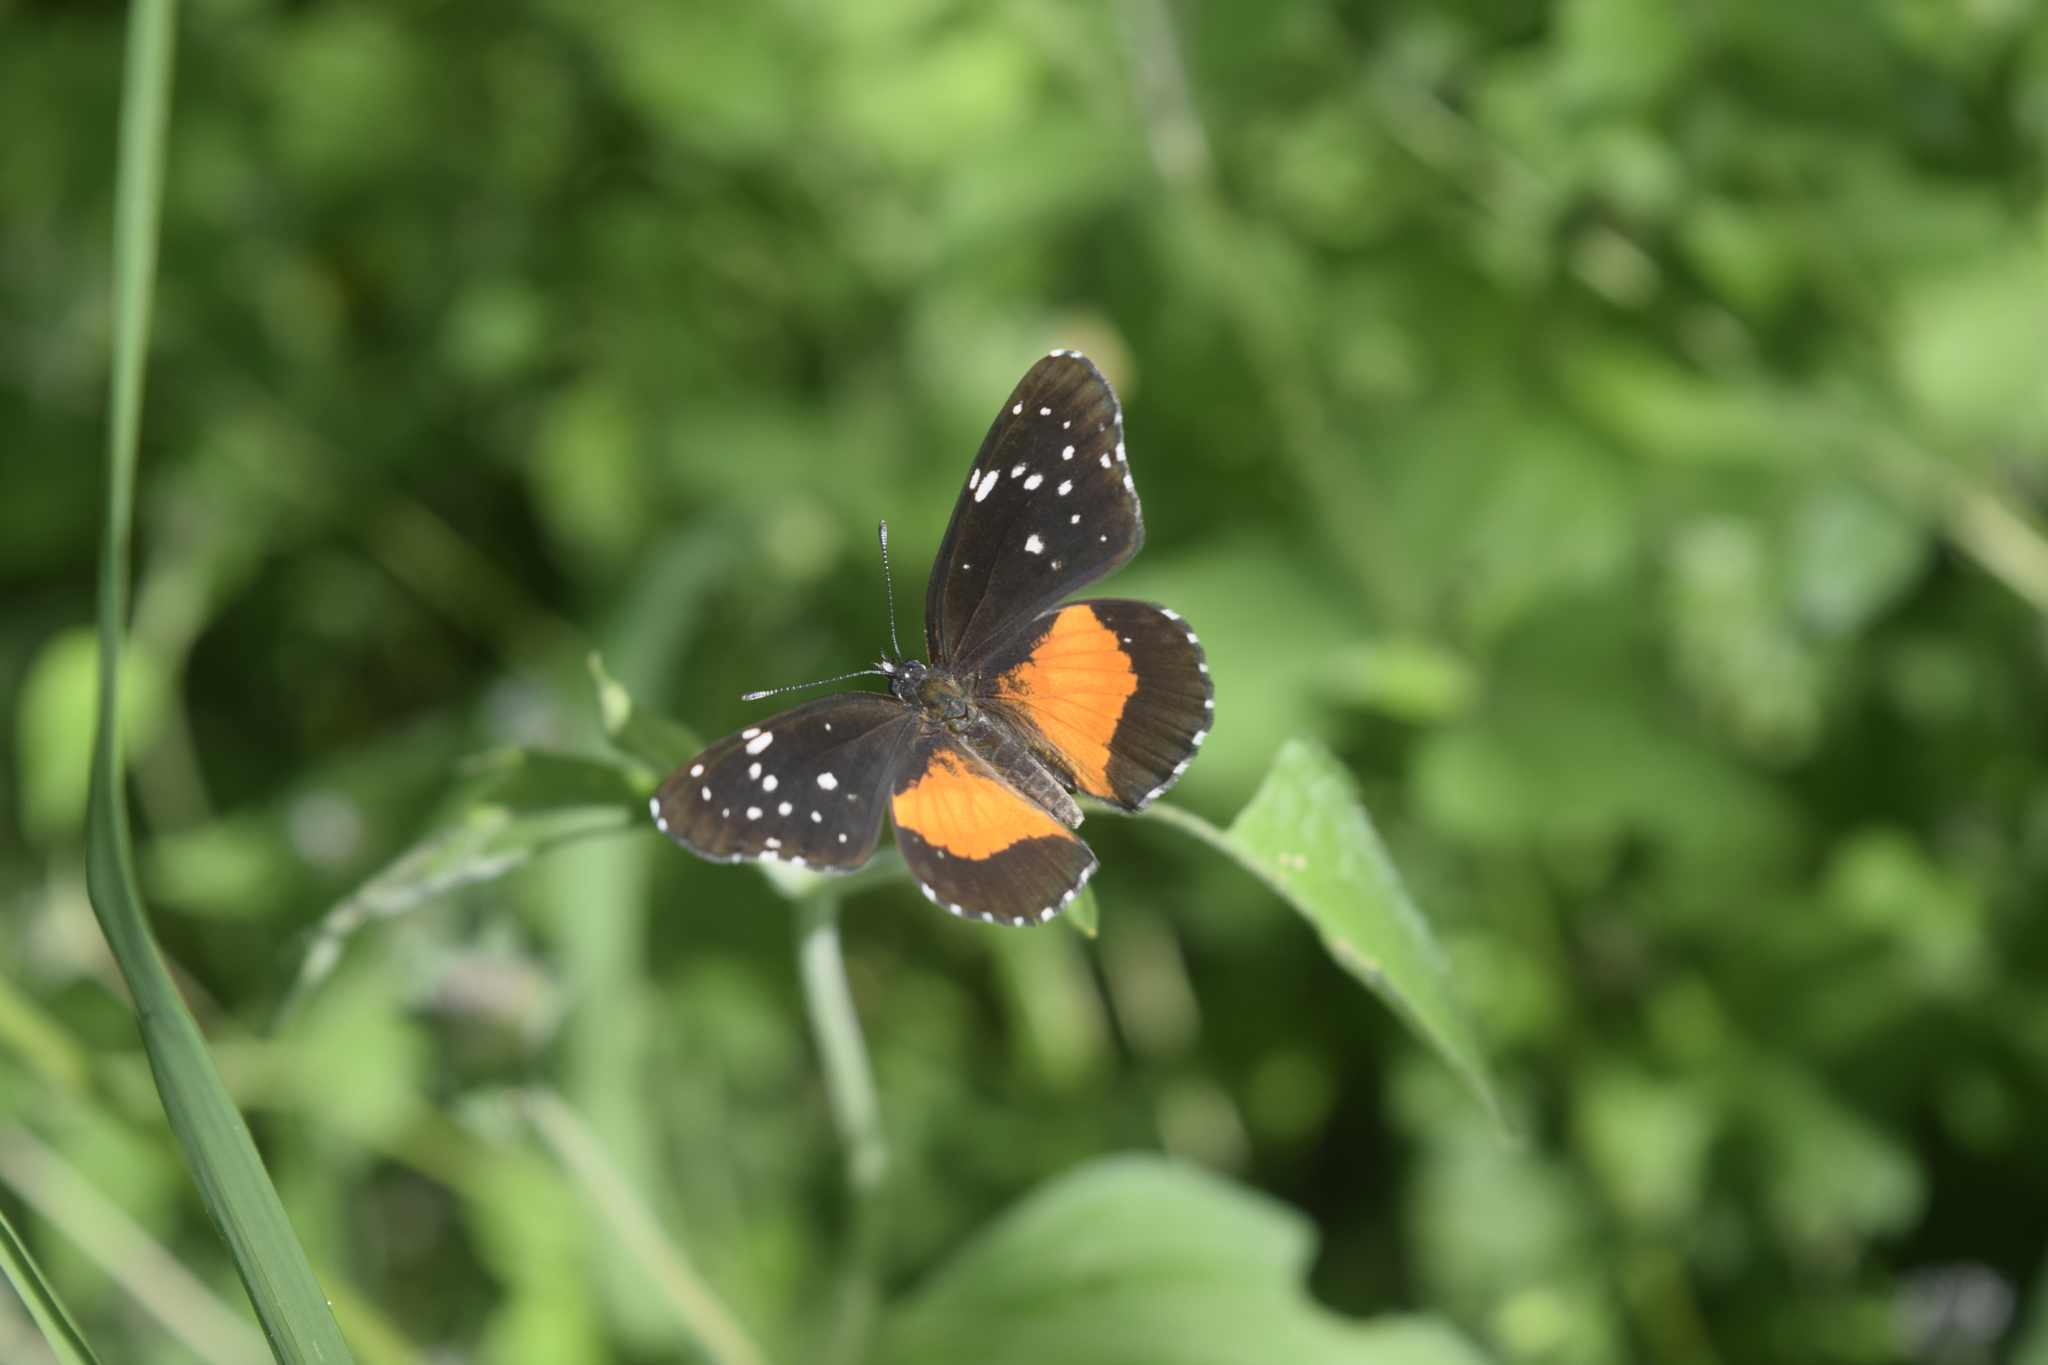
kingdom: Animalia
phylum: Arthropoda
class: Insecta
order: Lepidoptera
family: Nymphalidae
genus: Chlosyne
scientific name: Chlosyne lacinia
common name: Bordered patch
